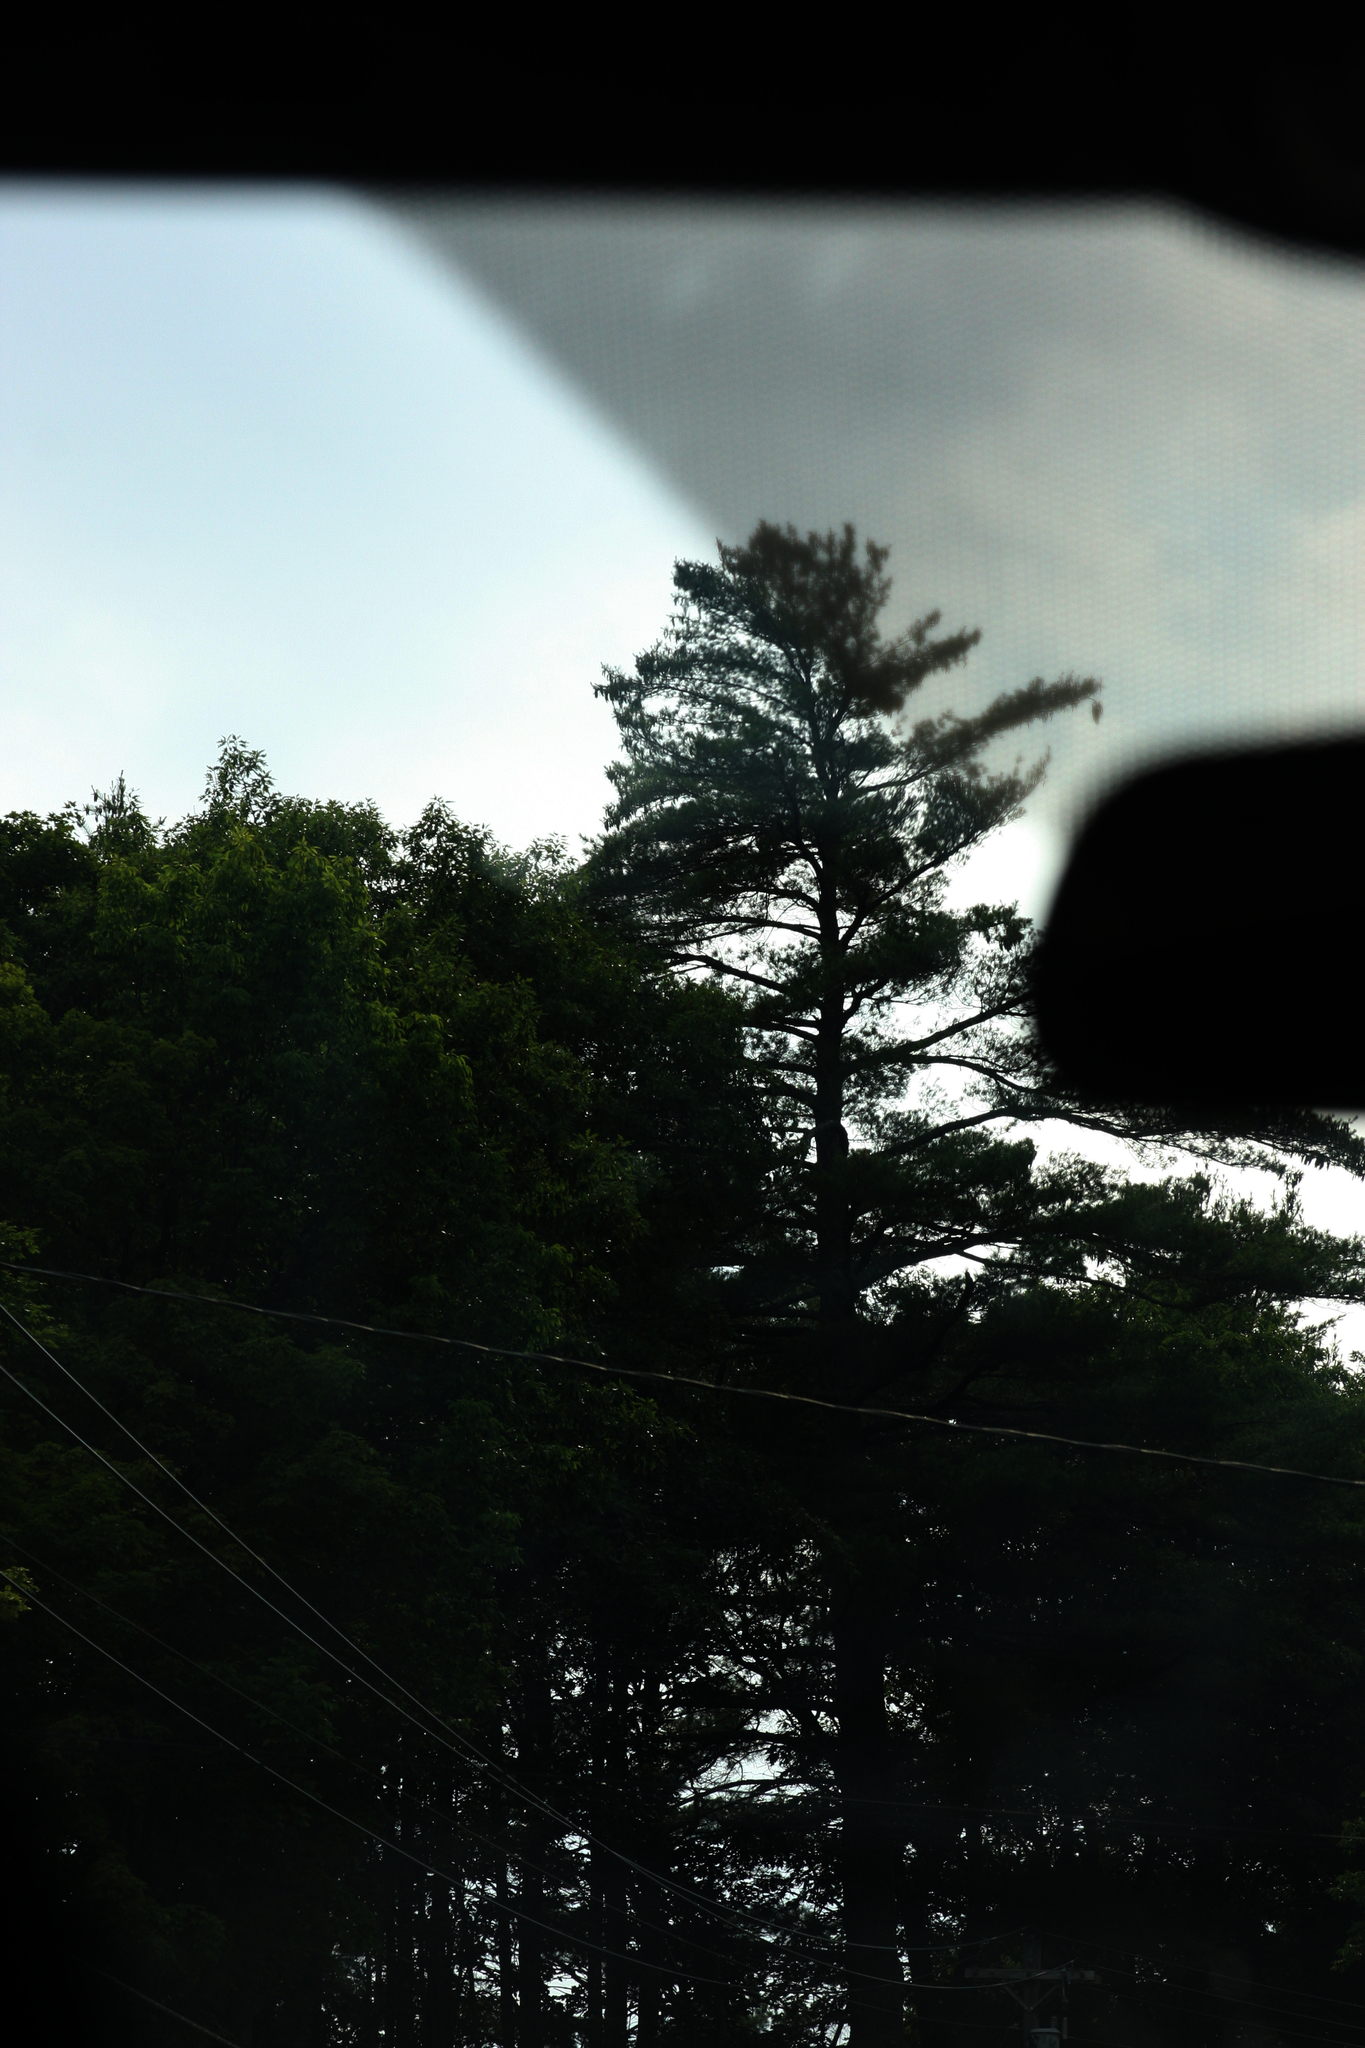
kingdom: Plantae
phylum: Tracheophyta
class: Pinopsida
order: Pinales
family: Pinaceae
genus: Pinus
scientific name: Pinus strobus
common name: Weymouth pine
